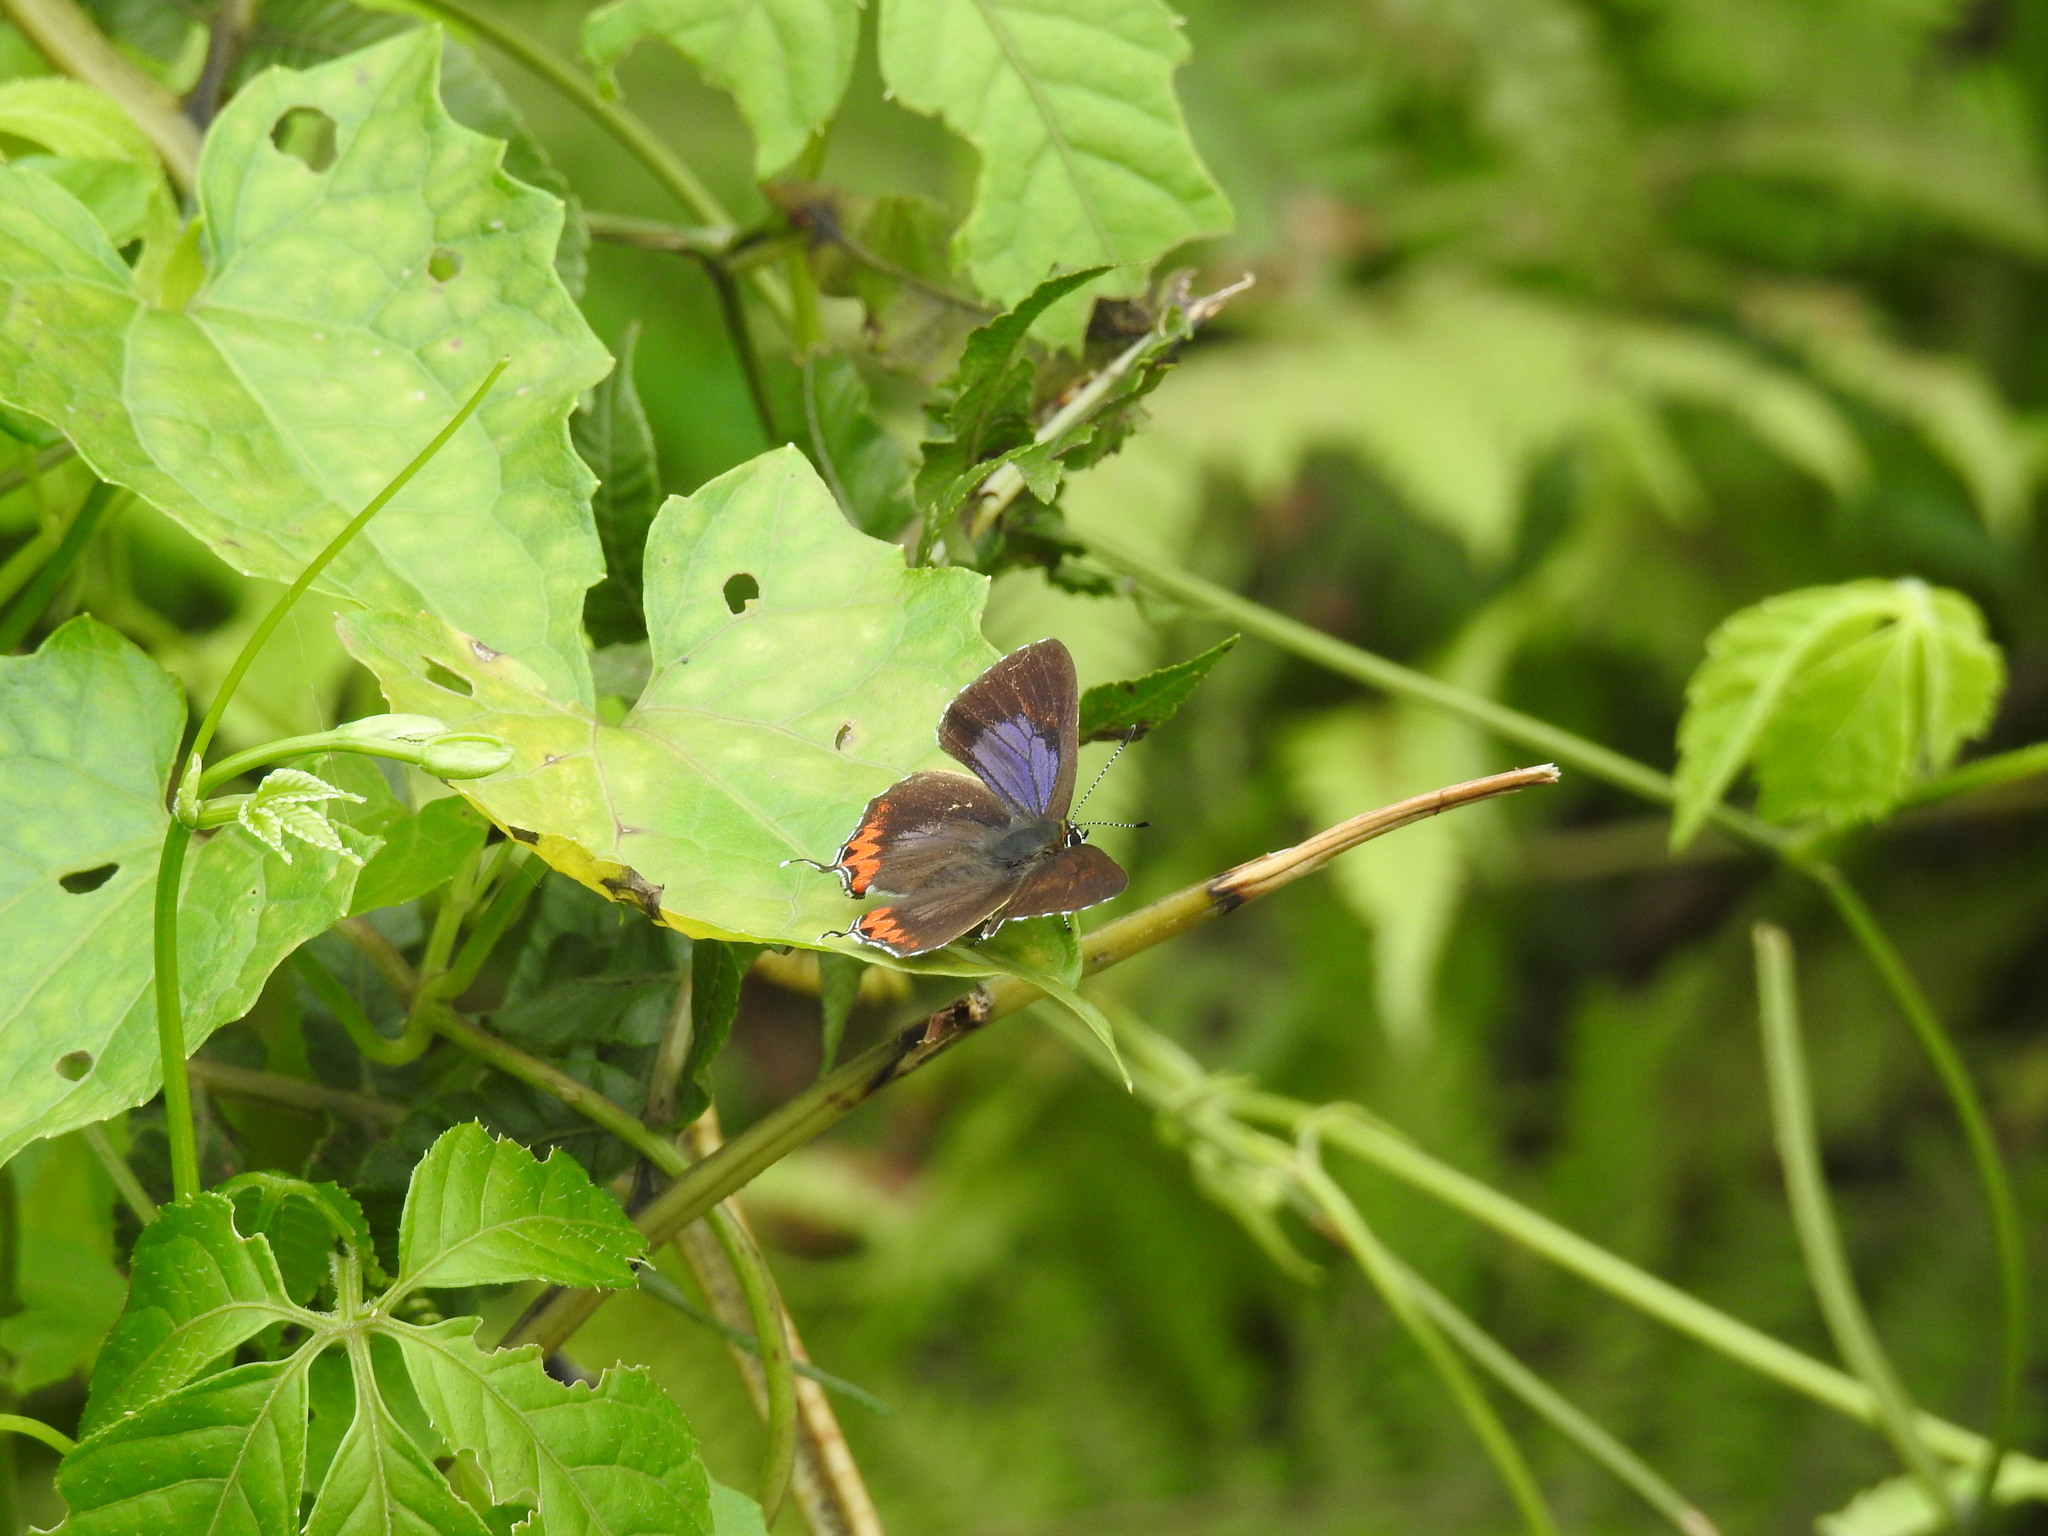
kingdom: Animalia
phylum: Arthropoda
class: Insecta
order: Lepidoptera
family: Lycaenidae
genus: Heliophorus
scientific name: Heliophorus epicles
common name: Purple sapphire
